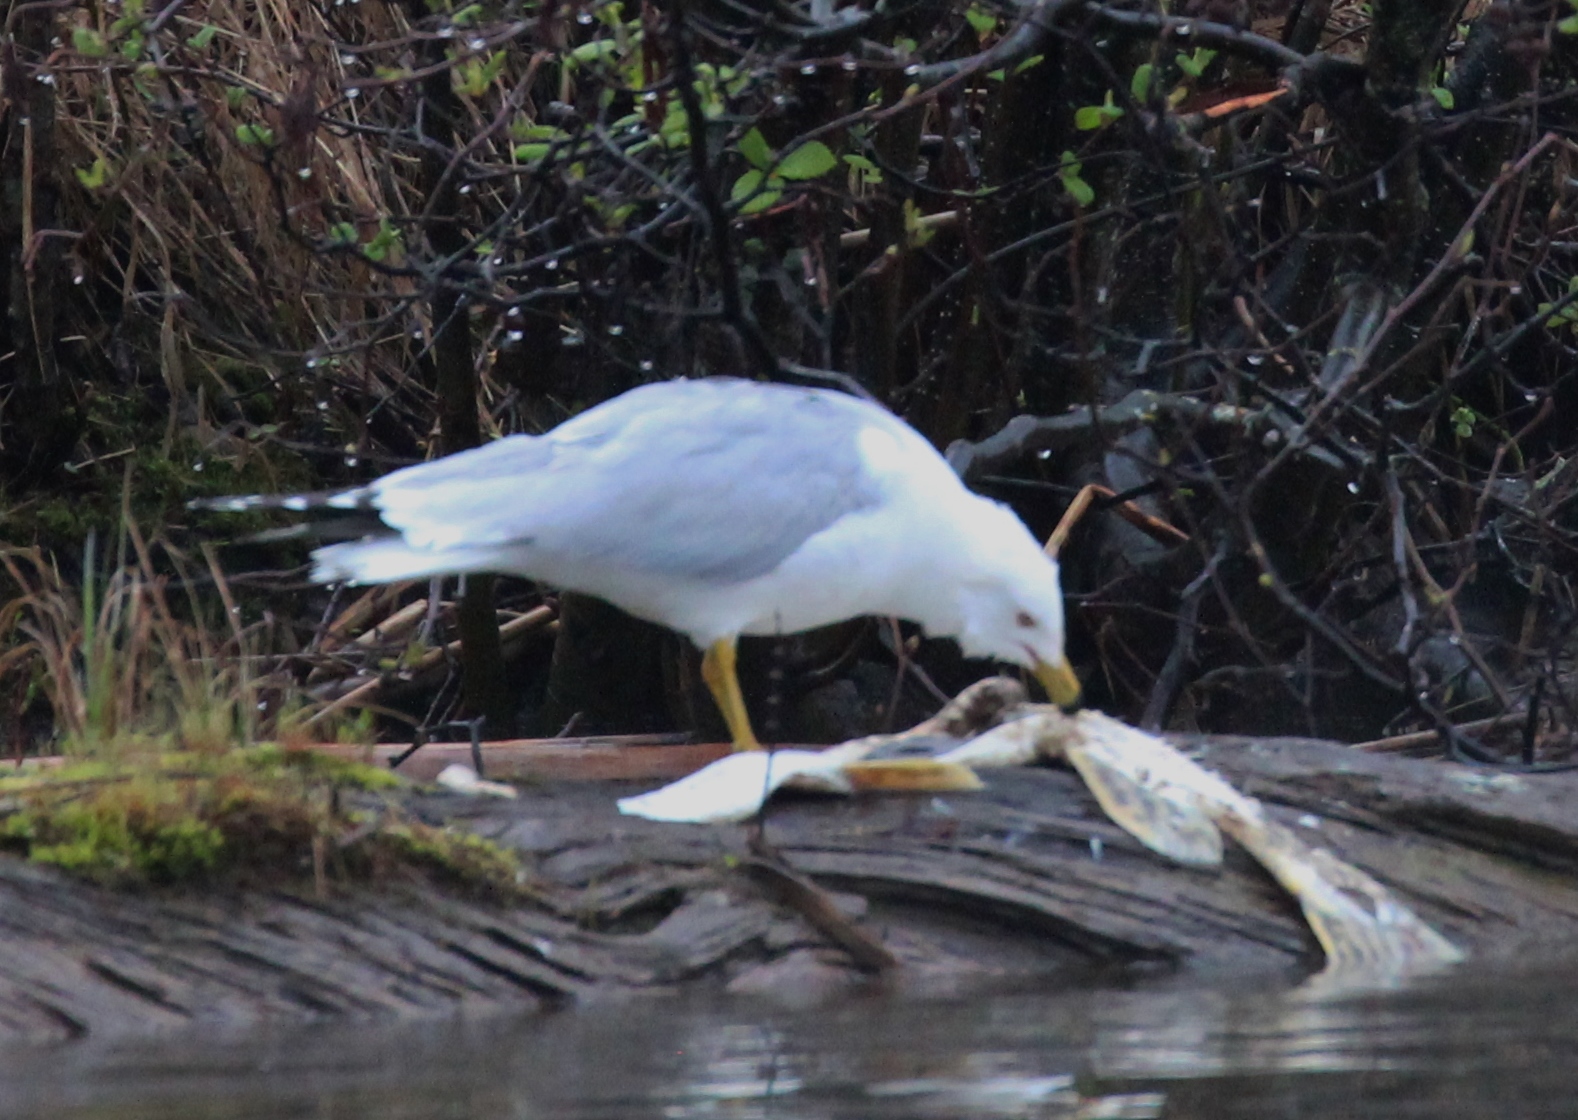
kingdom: Animalia
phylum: Chordata
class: Aves
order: Charadriiformes
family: Laridae
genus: Larus
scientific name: Larus delawarensis
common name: Ring-billed gull
